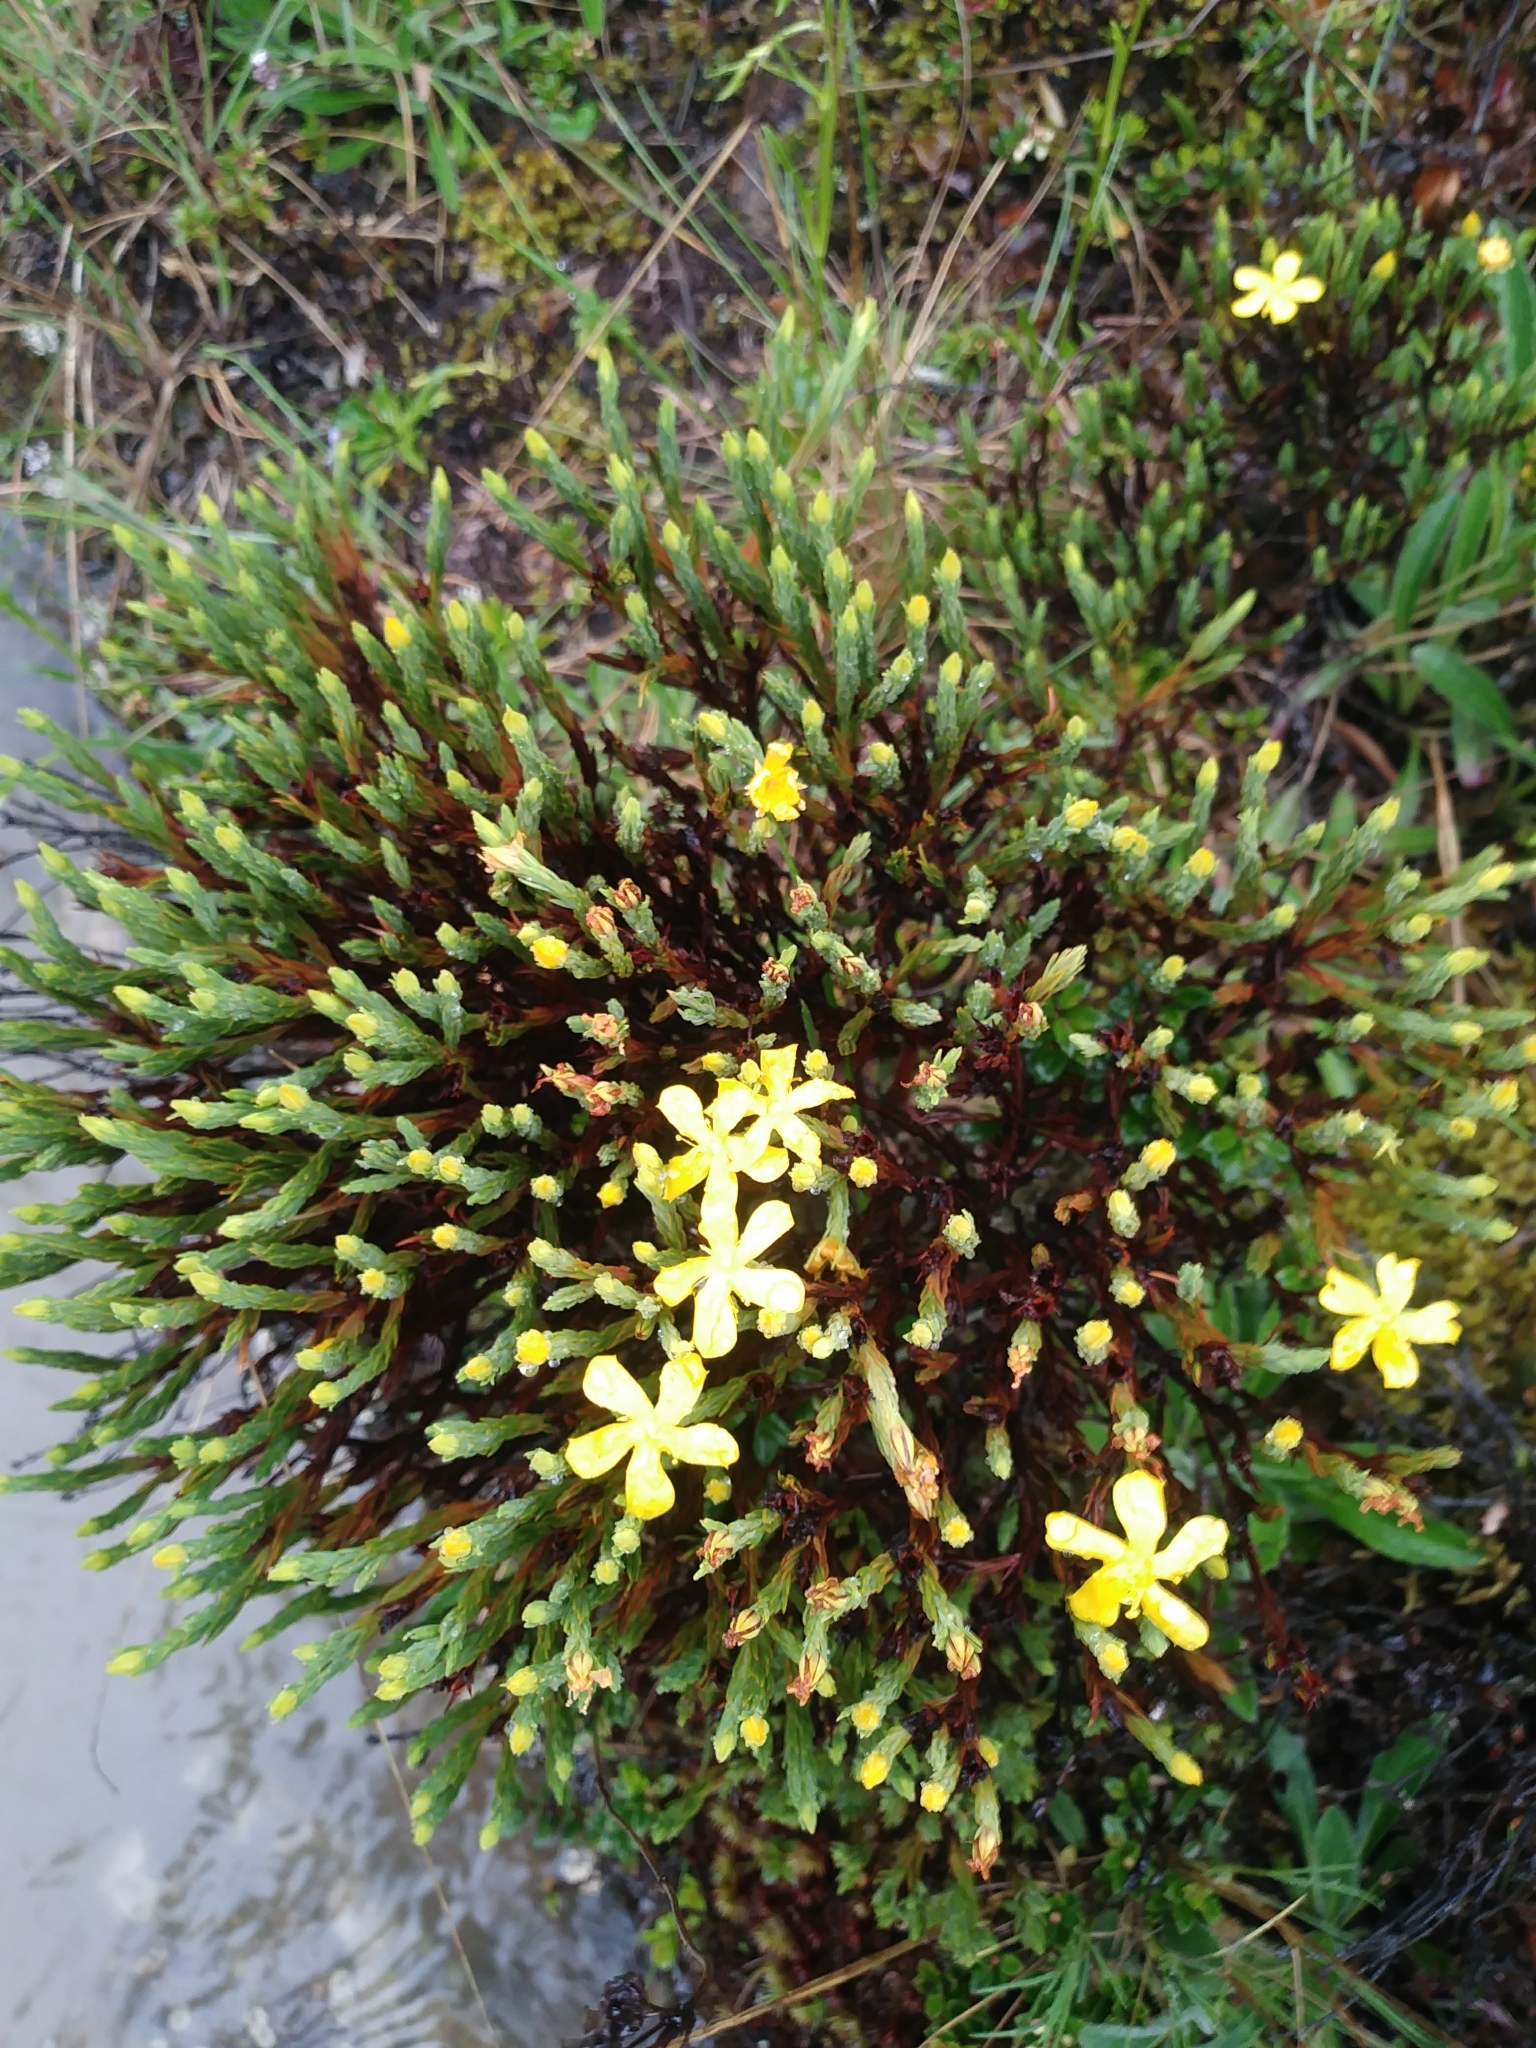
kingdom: Plantae
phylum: Tracheophyta
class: Magnoliopsida
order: Malpighiales
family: Hypericaceae
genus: Hypericum
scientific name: Hypericum costaricense
